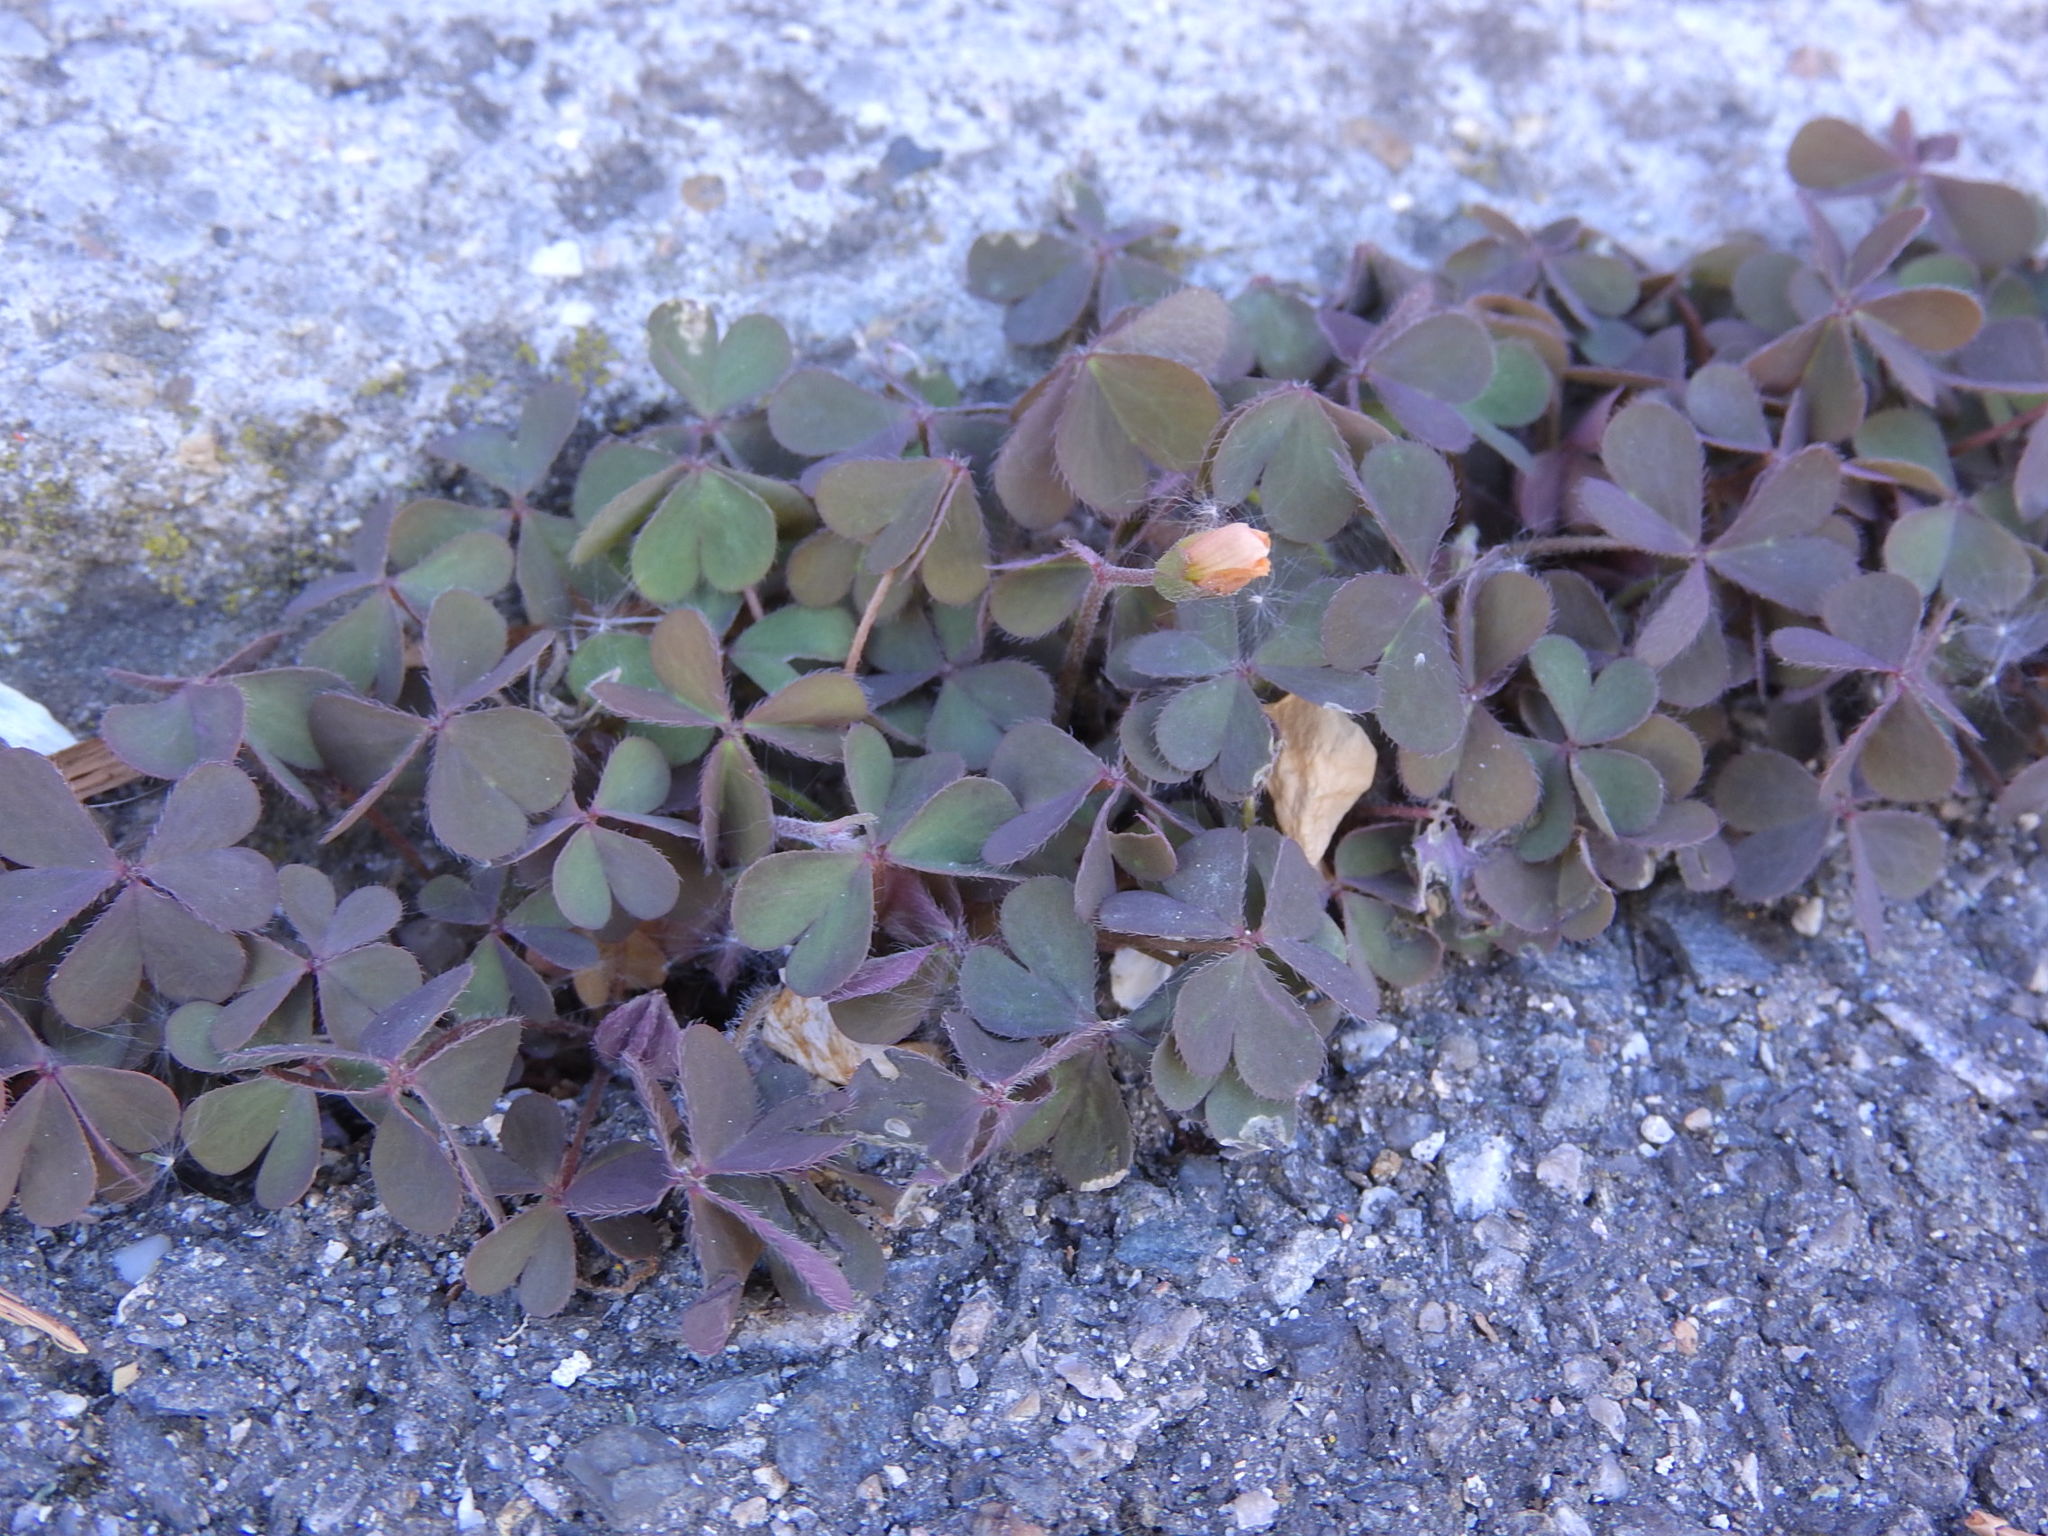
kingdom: Plantae
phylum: Tracheophyta
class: Magnoliopsida
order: Oxalidales
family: Oxalidaceae
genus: Oxalis
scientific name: Oxalis corniculata
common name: Procumbent yellow-sorrel
